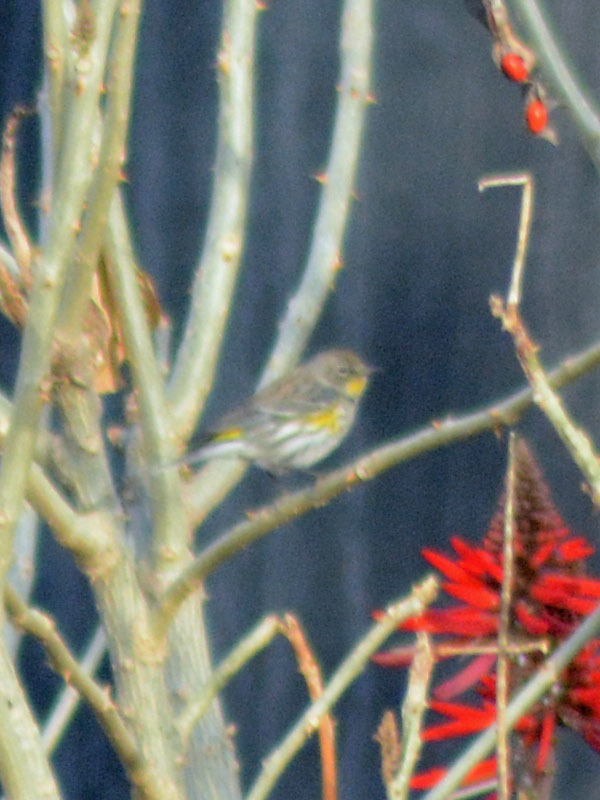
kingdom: Animalia
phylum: Chordata
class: Aves
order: Passeriformes
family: Parulidae
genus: Setophaga
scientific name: Setophaga auduboni
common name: Audubon's warbler
